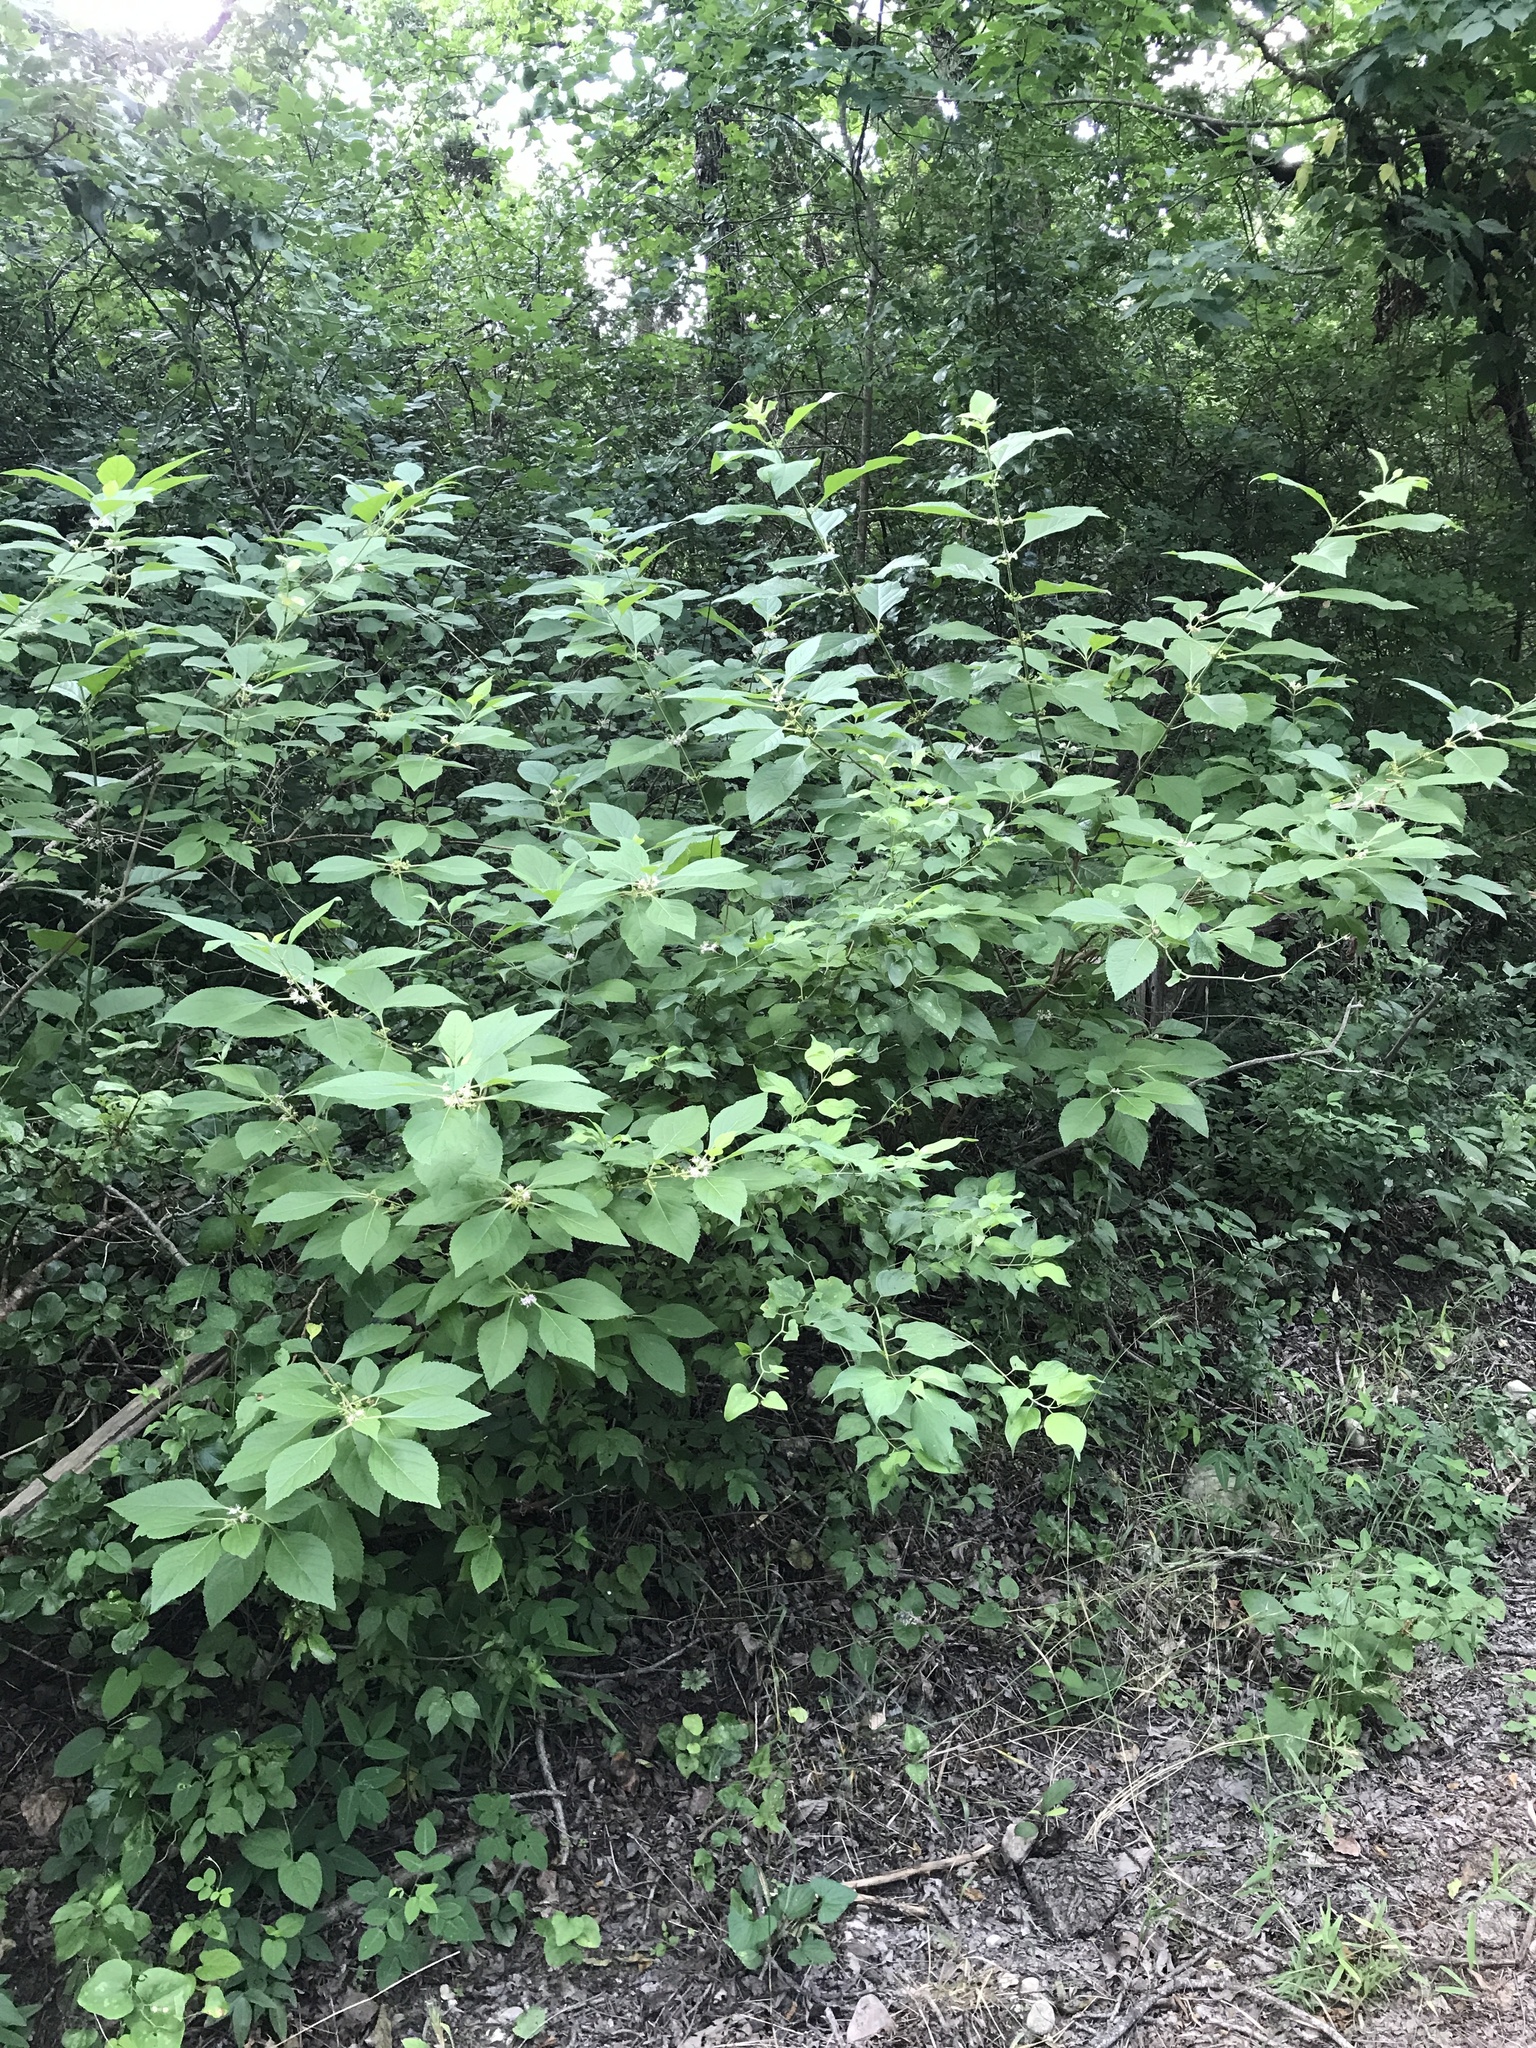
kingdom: Plantae
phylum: Tracheophyta
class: Magnoliopsida
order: Lamiales
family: Lamiaceae
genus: Callicarpa
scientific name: Callicarpa americana
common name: American beautyberry
